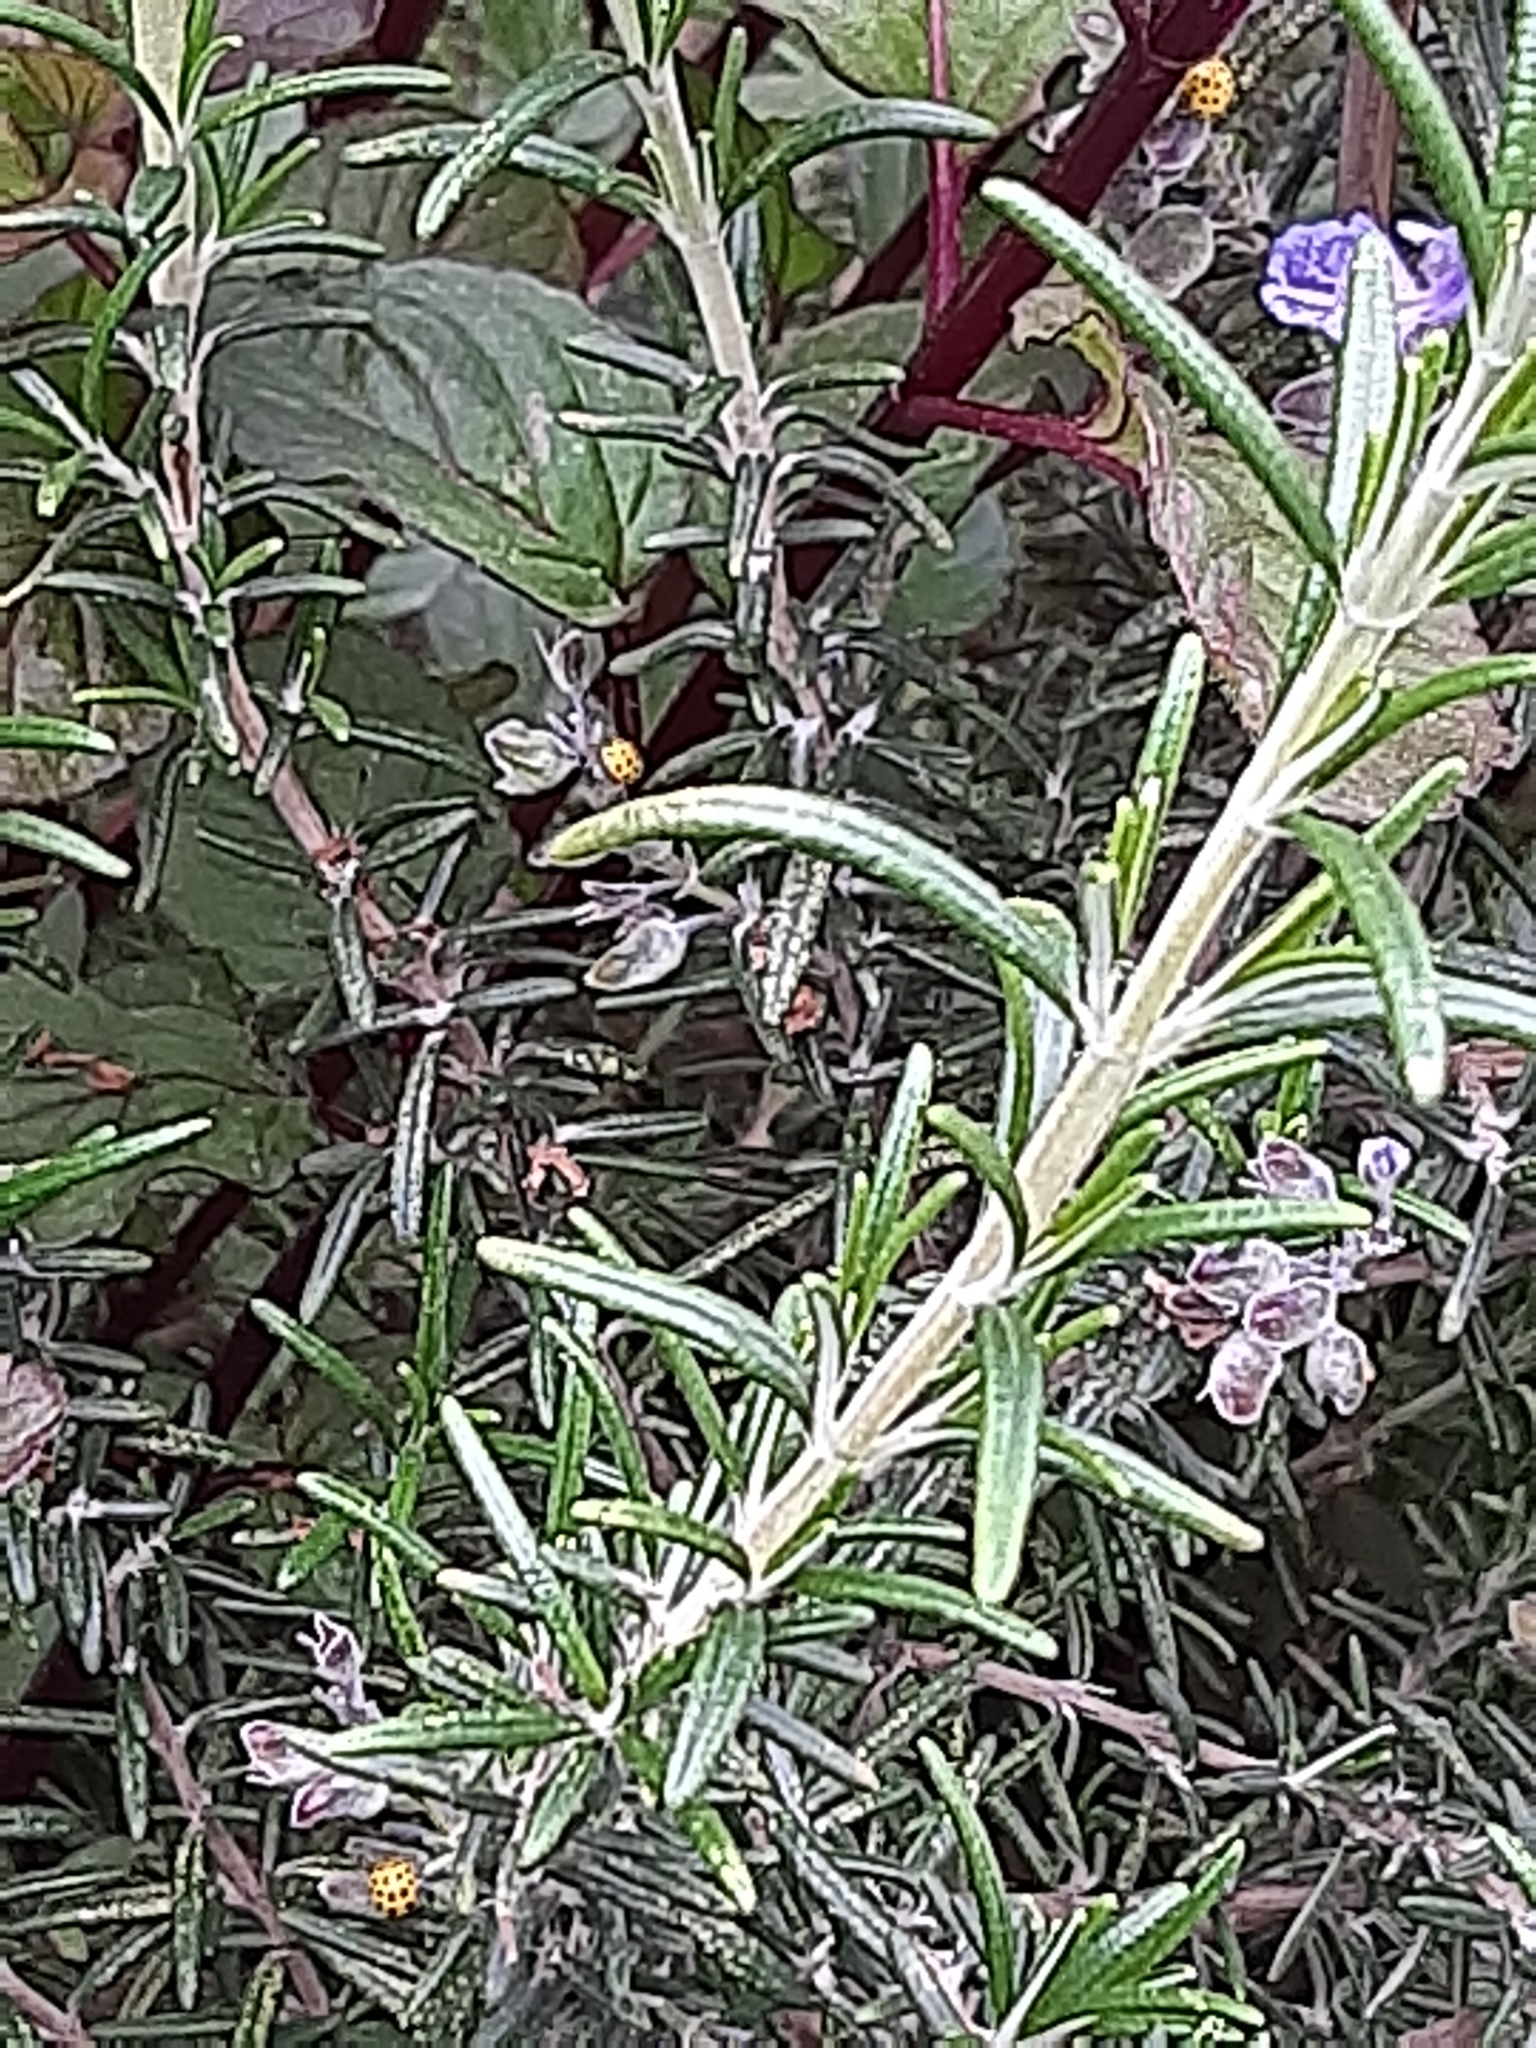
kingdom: Animalia
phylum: Arthropoda
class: Insecta
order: Coleoptera
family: Coccinellidae
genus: Psyllobora
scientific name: Psyllobora vigintiduopunctata
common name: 22-spot ladybird
